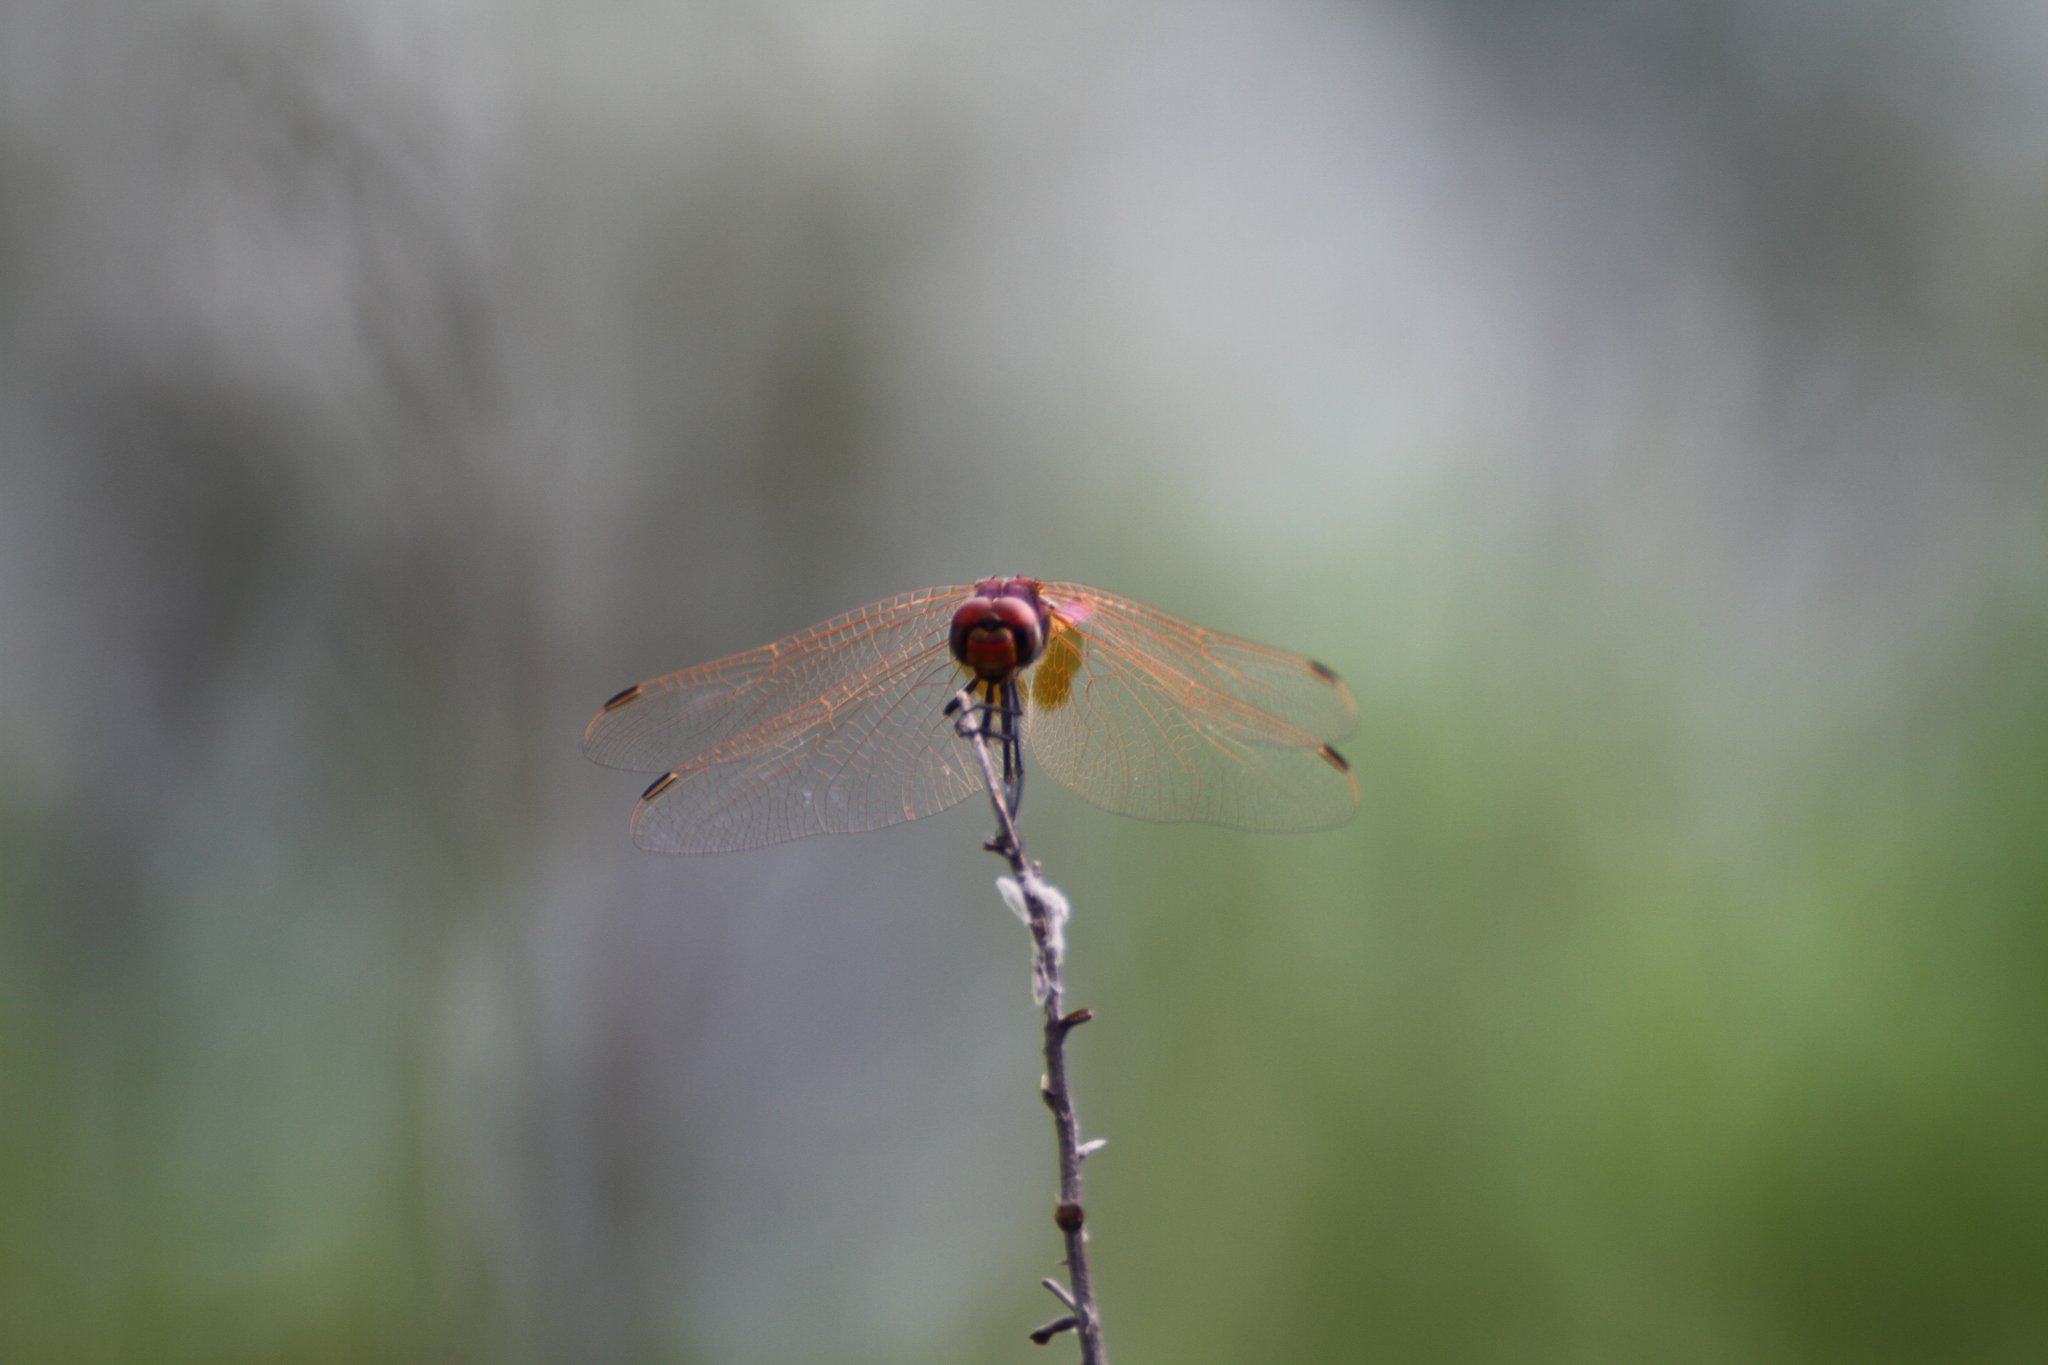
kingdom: Animalia
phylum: Arthropoda
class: Insecta
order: Odonata
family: Libellulidae
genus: Trithemis
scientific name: Trithemis annulata
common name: Violet dropwing
